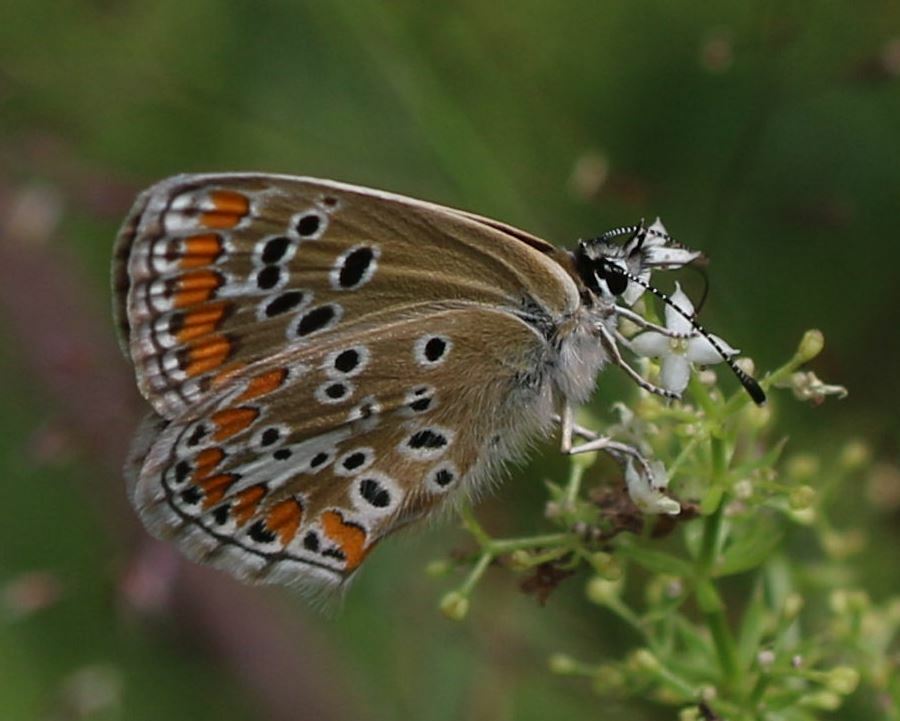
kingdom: Animalia
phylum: Arthropoda
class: Insecta
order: Lepidoptera
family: Lycaenidae
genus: Aricia
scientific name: Aricia agestis
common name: Brown argus
